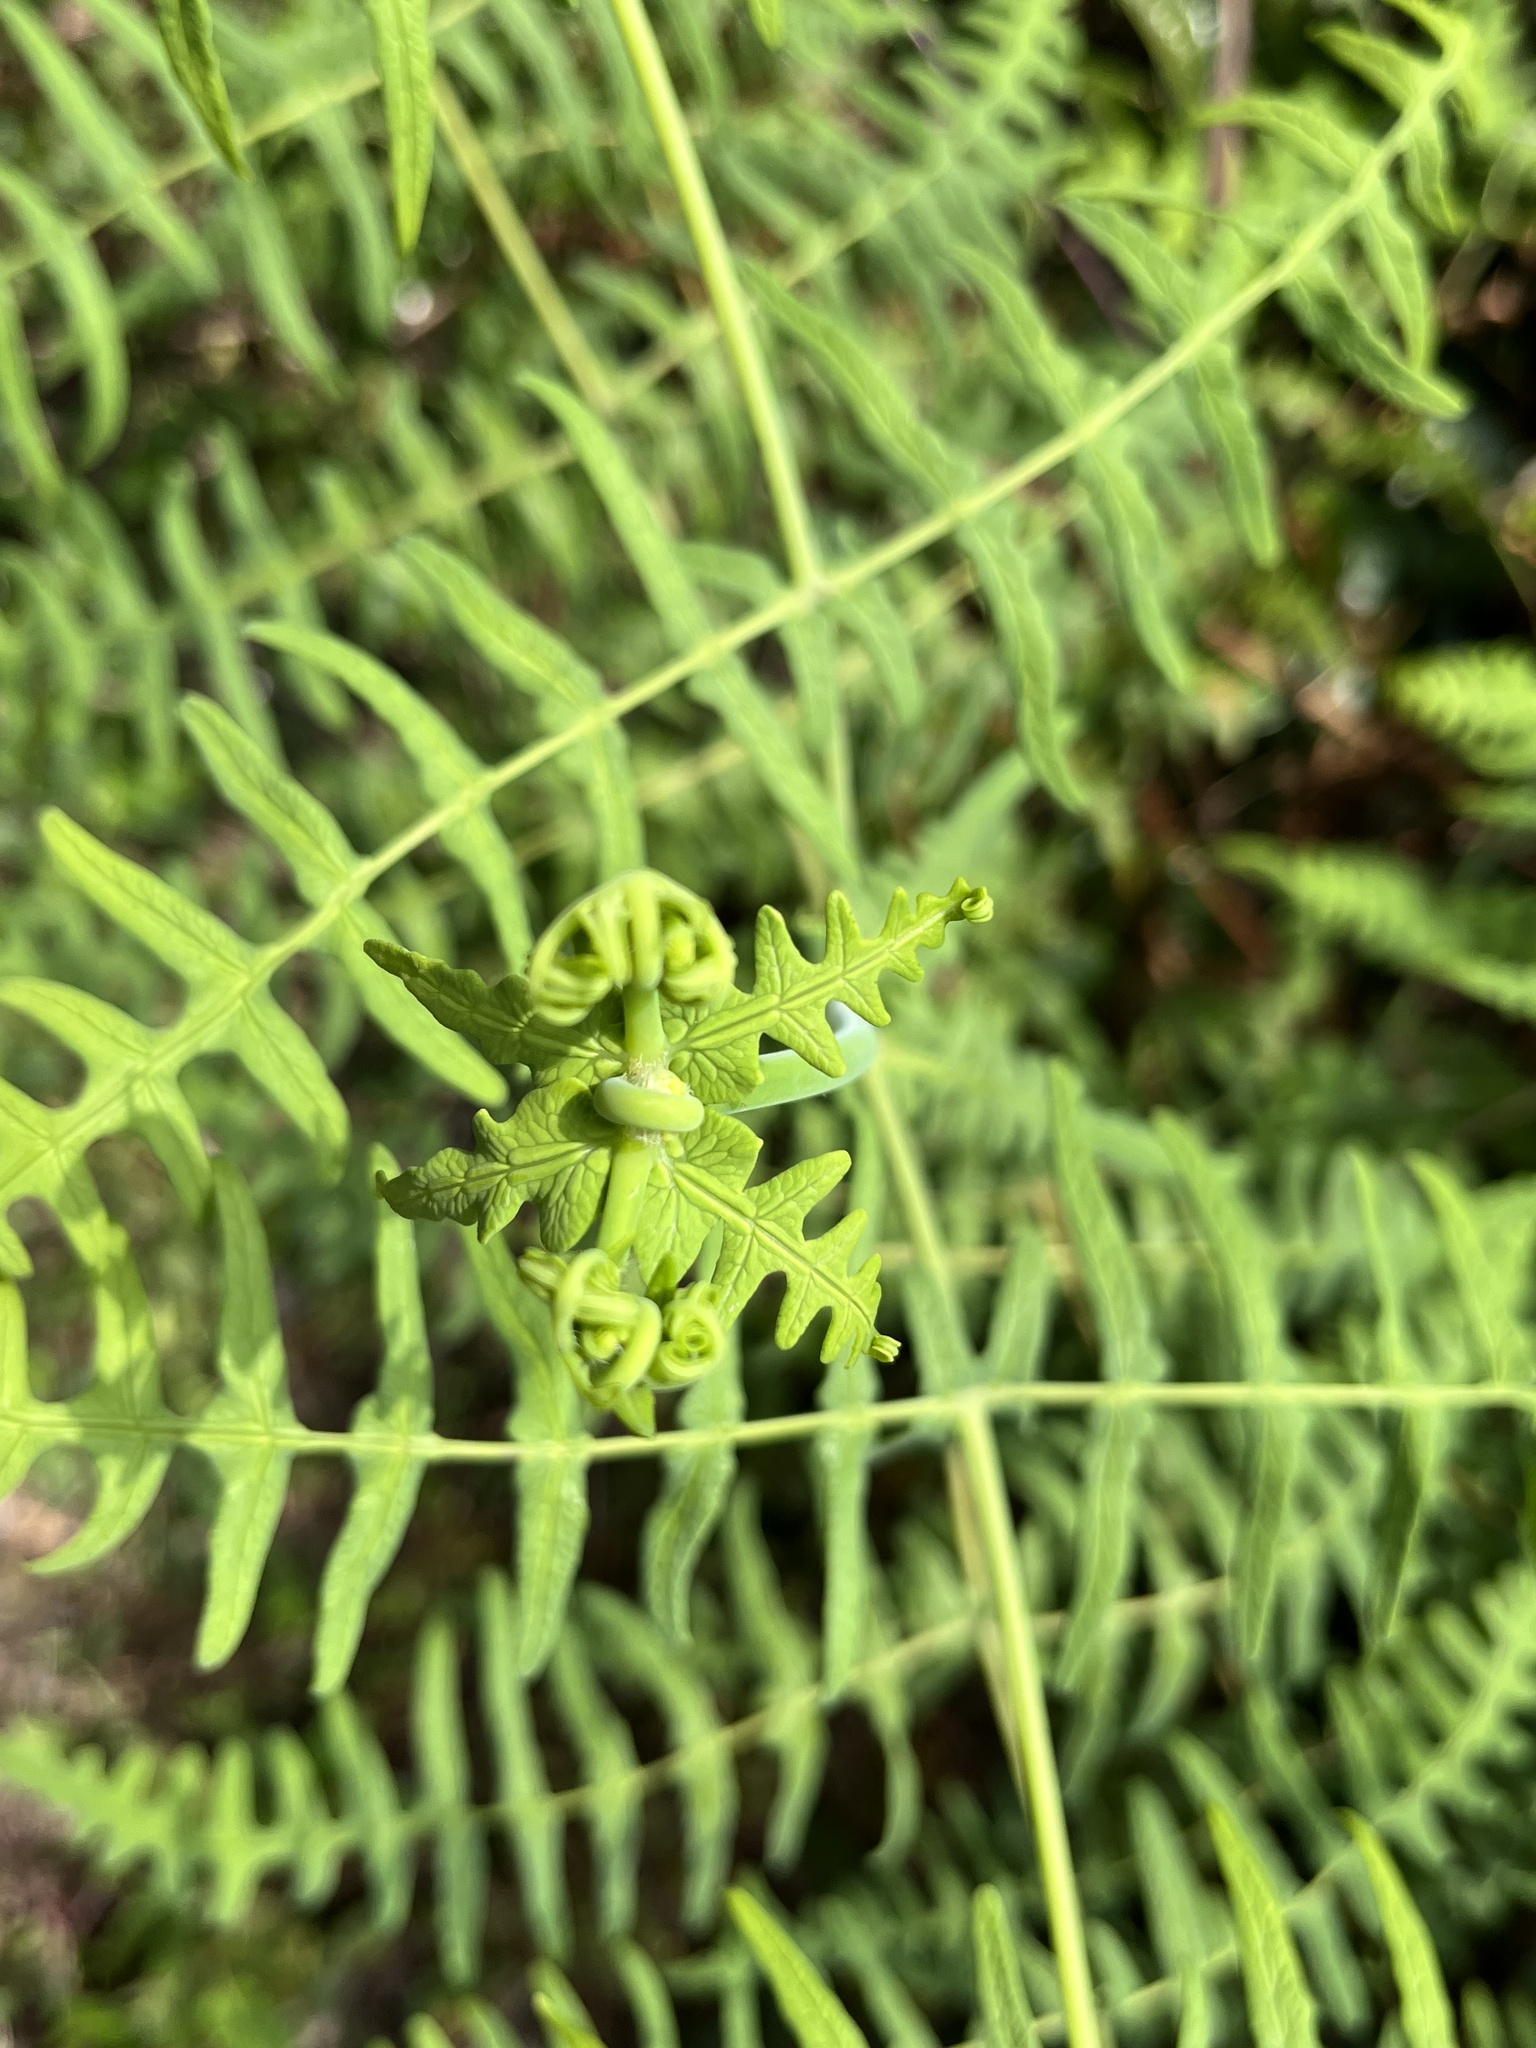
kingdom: Plantae
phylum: Tracheophyta
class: Polypodiopsida
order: Polypodiales
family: Dennstaedtiaceae
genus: Histiopteris
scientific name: Histiopteris incisa
